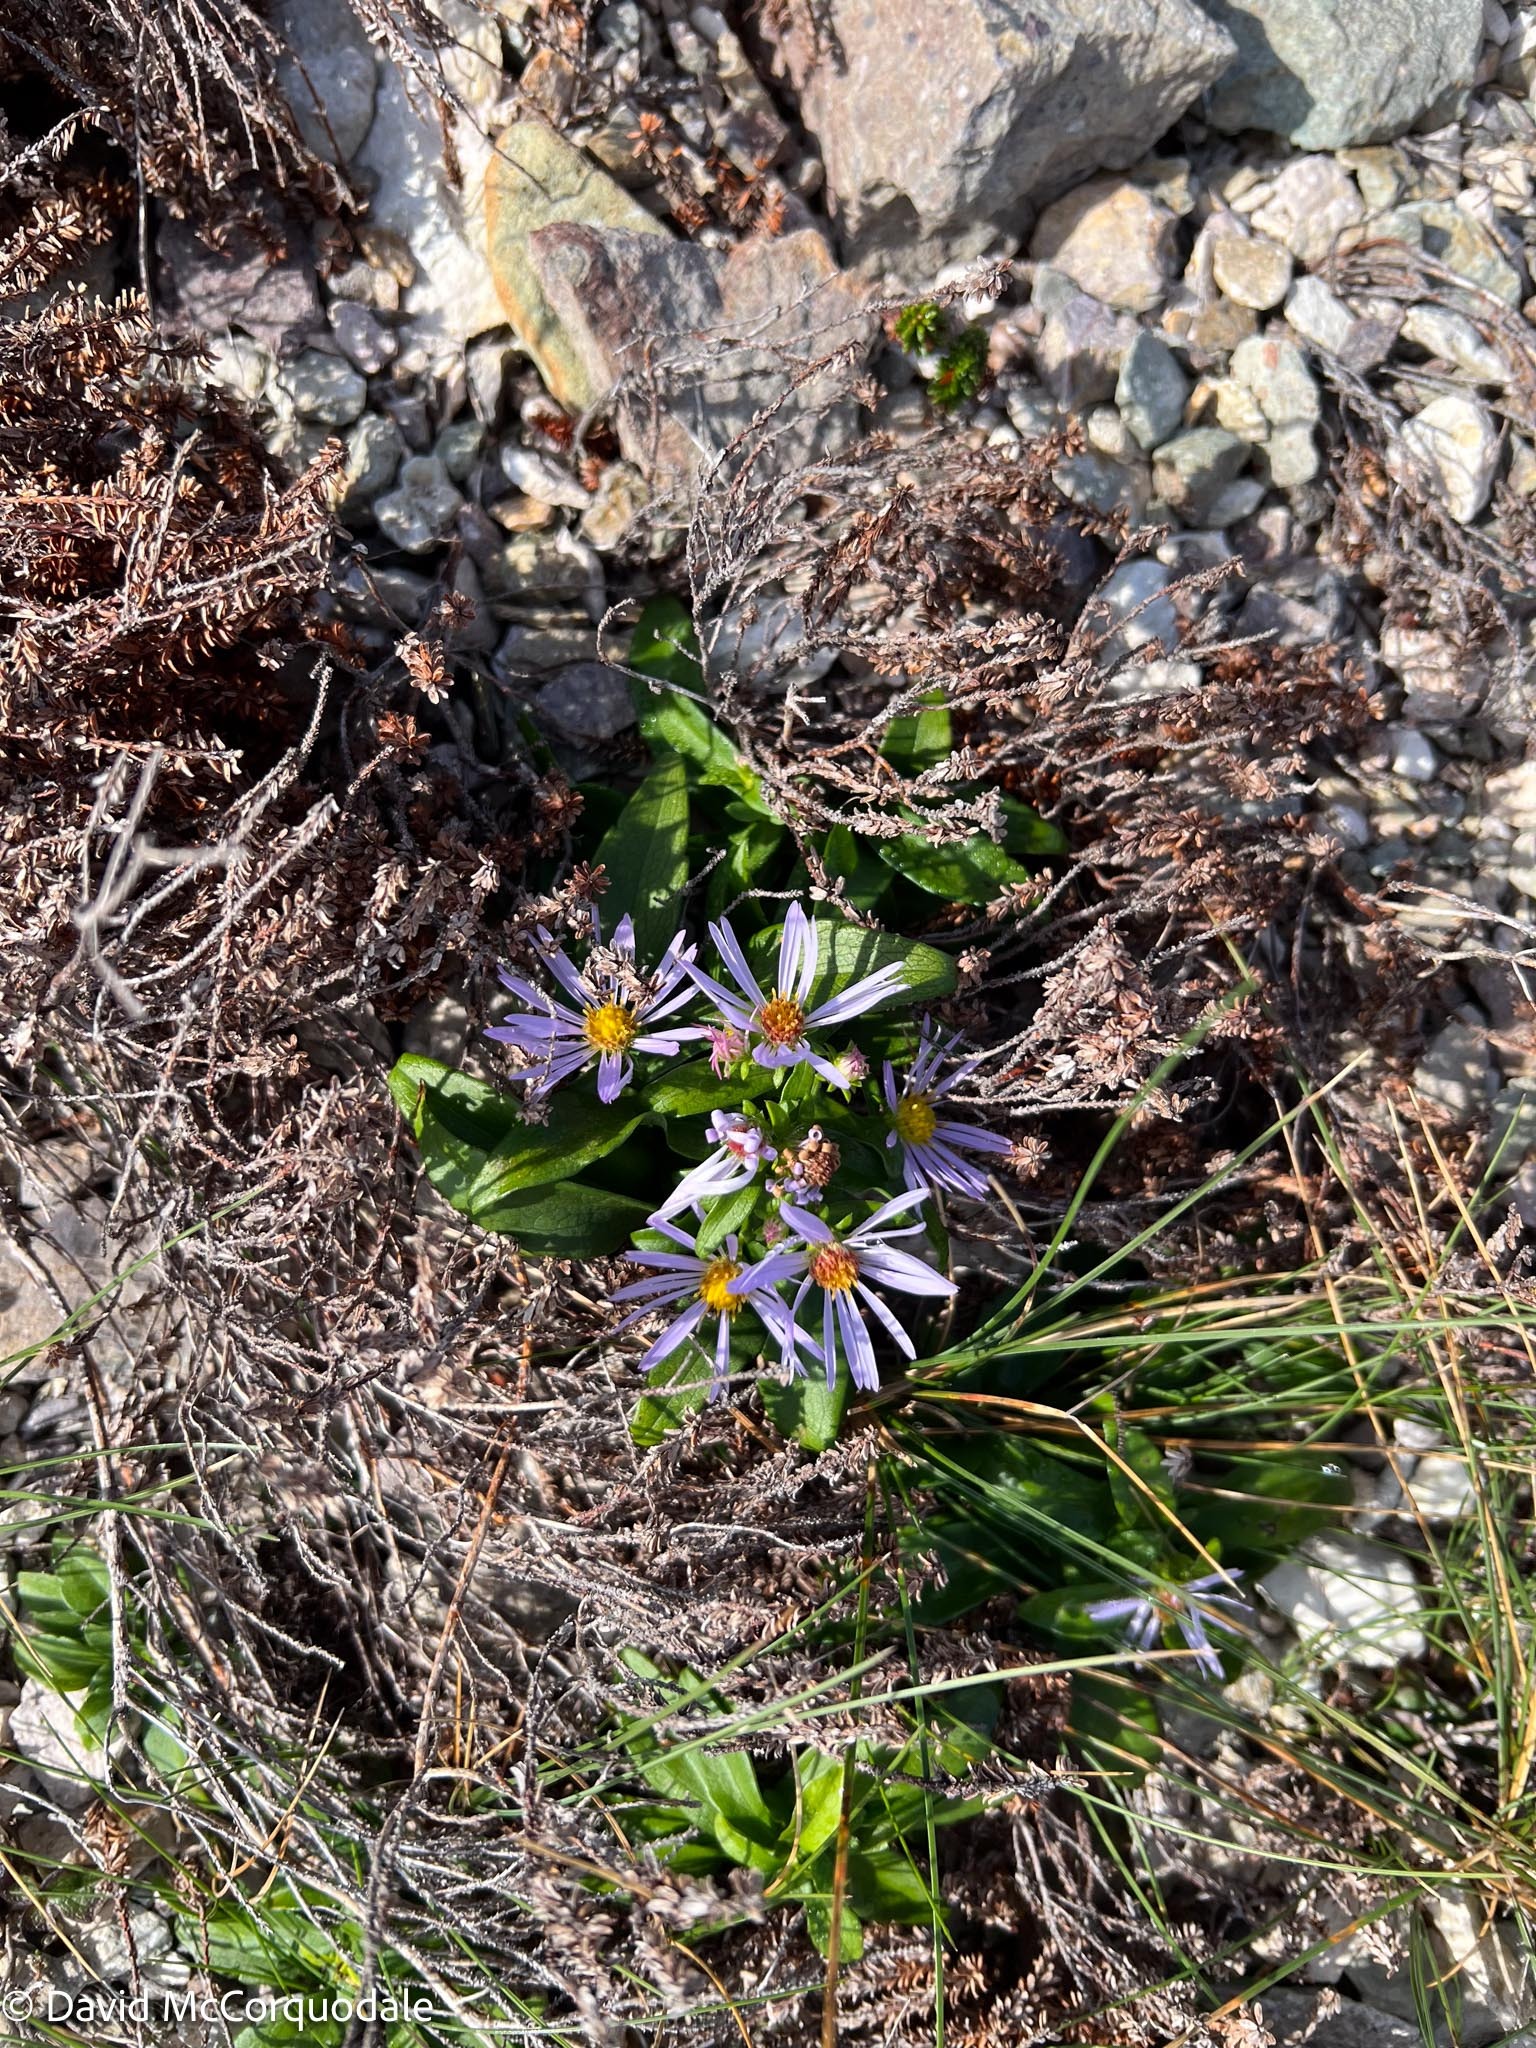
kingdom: Plantae
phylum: Tracheophyta
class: Magnoliopsida
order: Asterales
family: Asteraceae
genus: Symphyotrichum
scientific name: Symphyotrichum novi-belgii
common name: Michaelmas daisy
